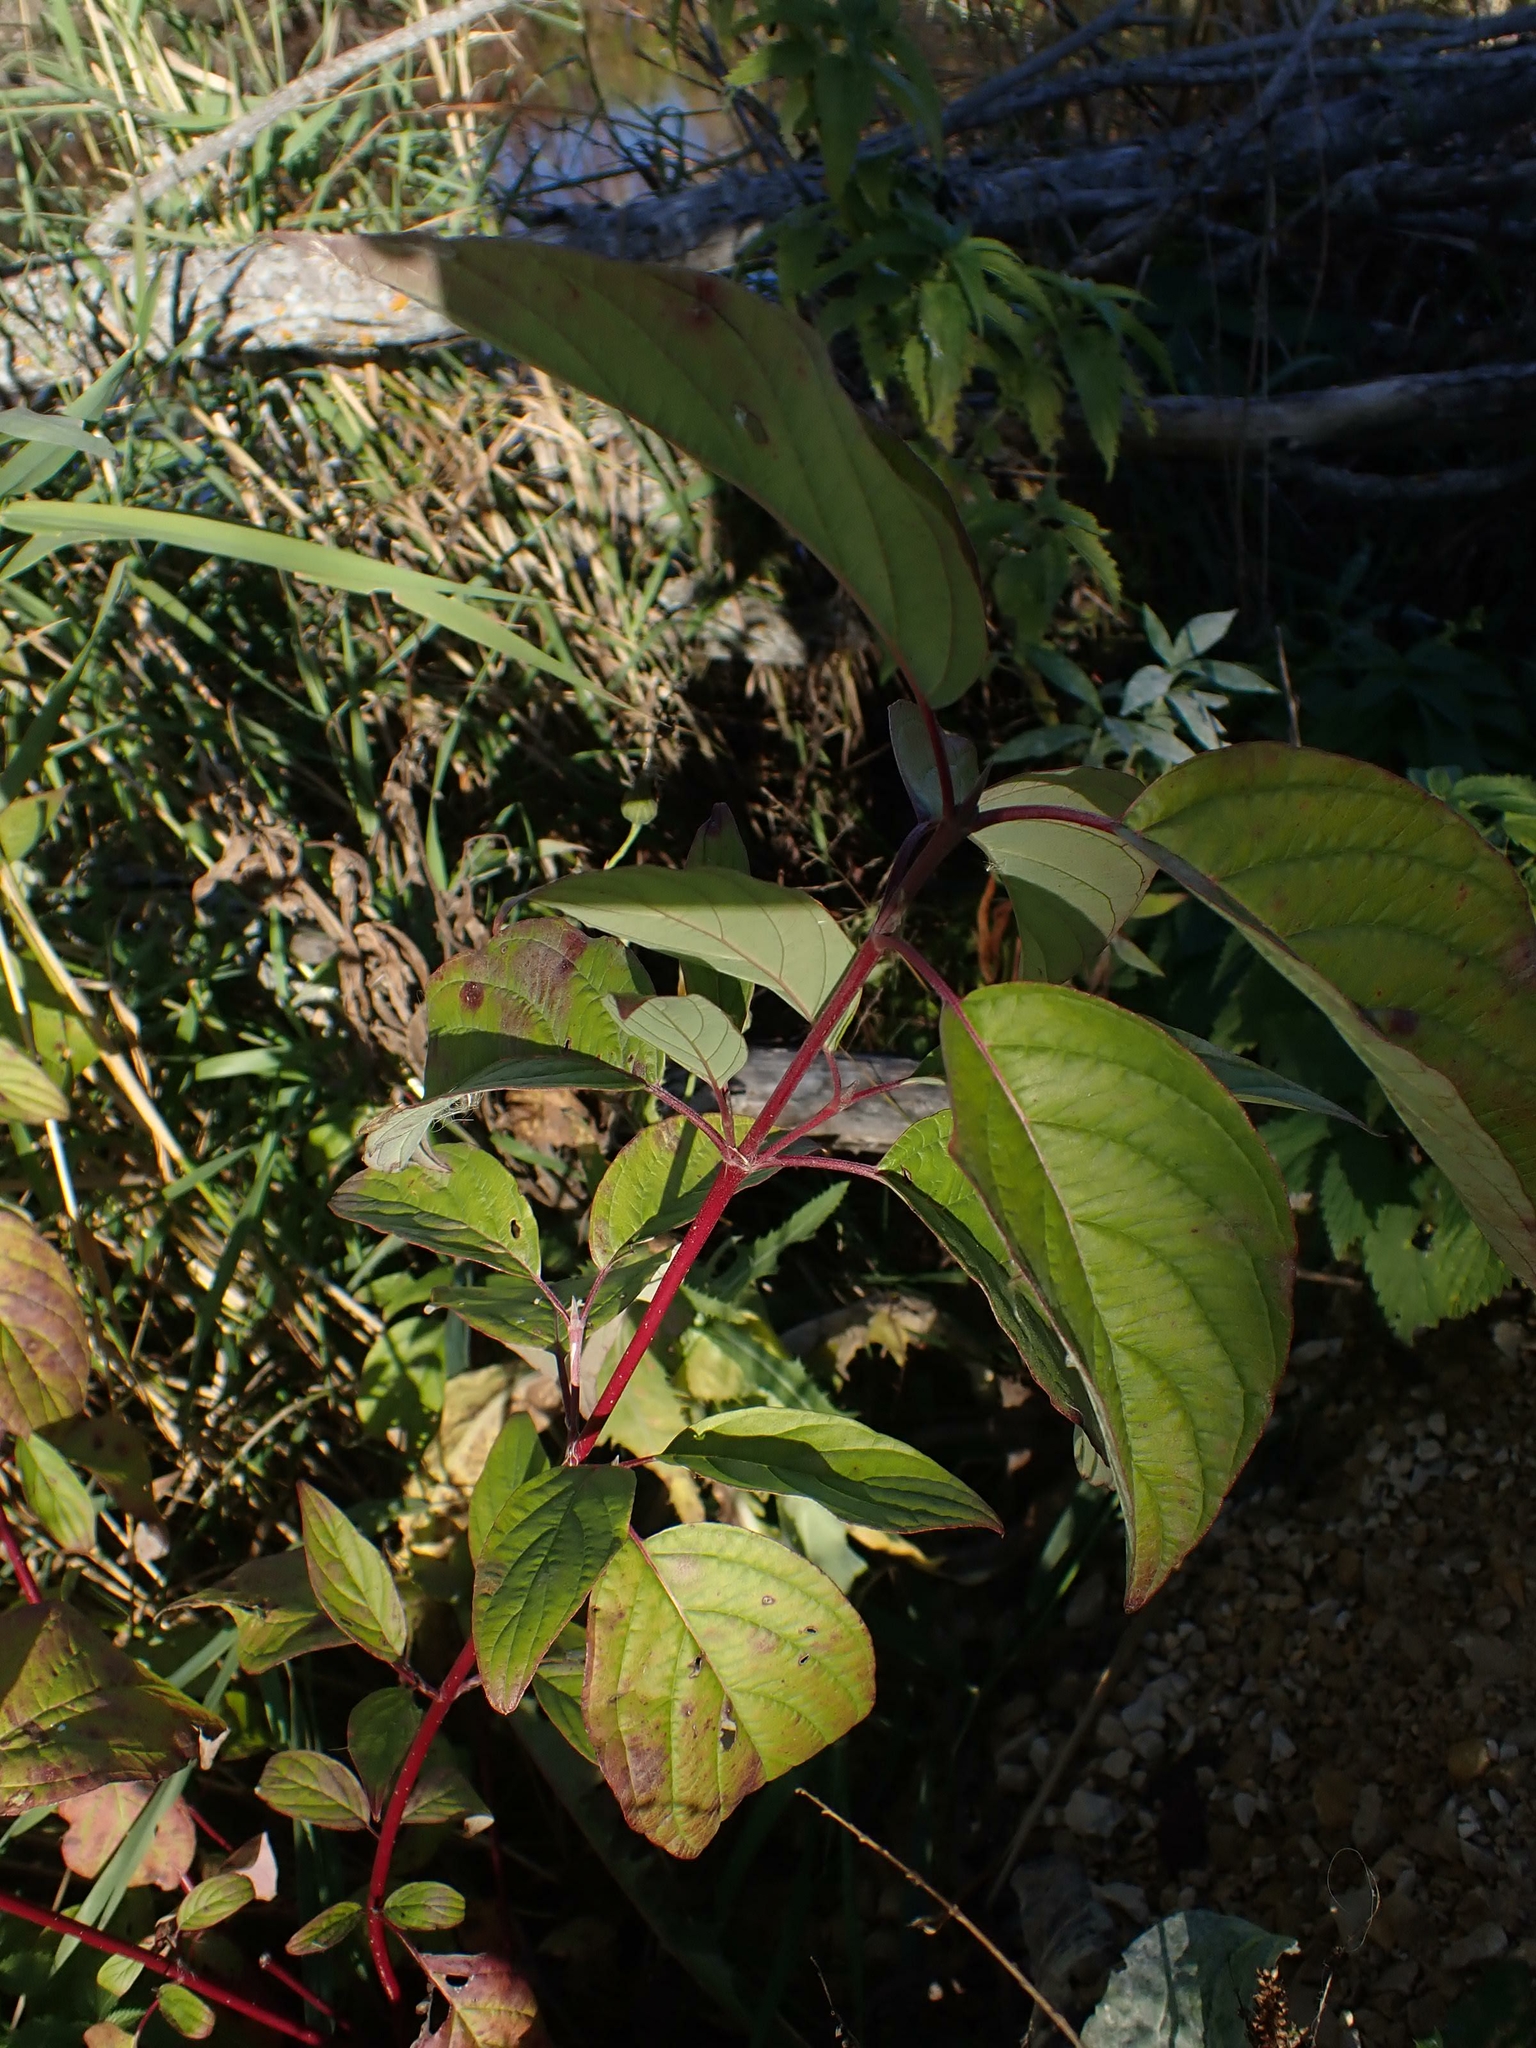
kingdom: Plantae
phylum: Tracheophyta
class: Magnoliopsida
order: Cornales
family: Cornaceae
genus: Cornus
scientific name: Cornus sericea
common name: Red-osier dogwood
